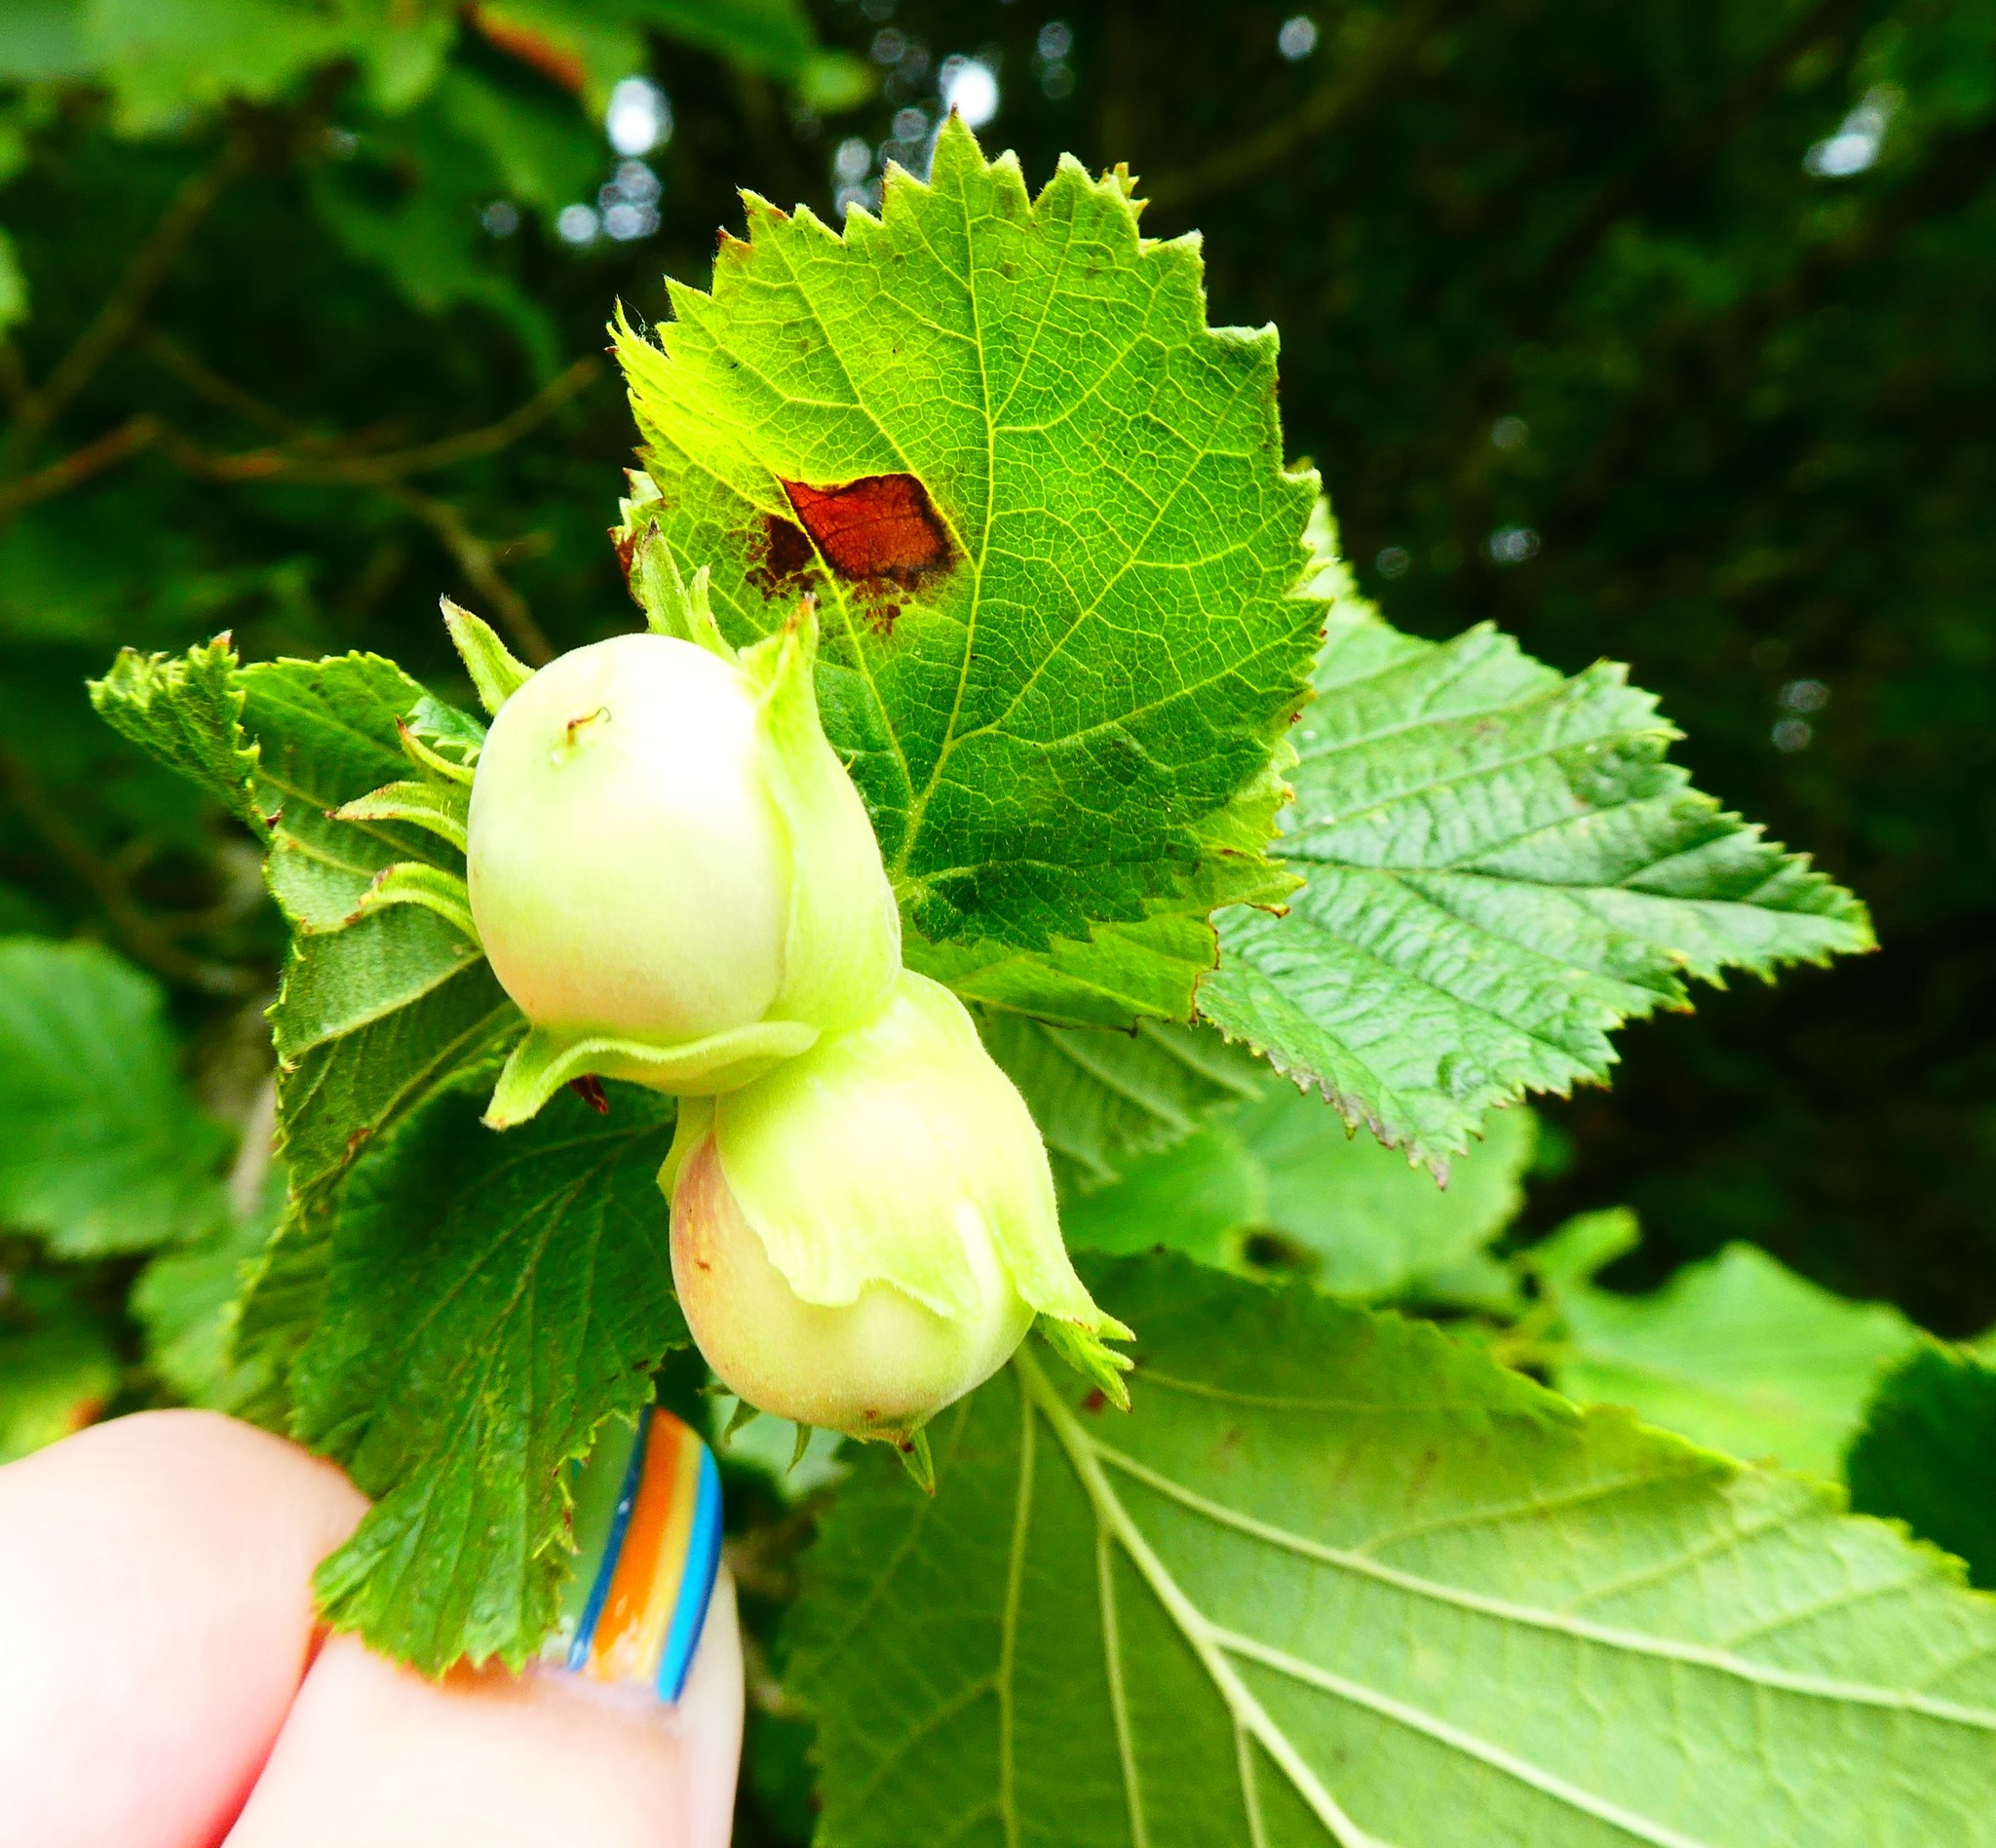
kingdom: Plantae
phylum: Tracheophyta
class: Magnoliopsida
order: Fagales
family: Betulaceae
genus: Corylus
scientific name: Corylus avellana
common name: European hazel
